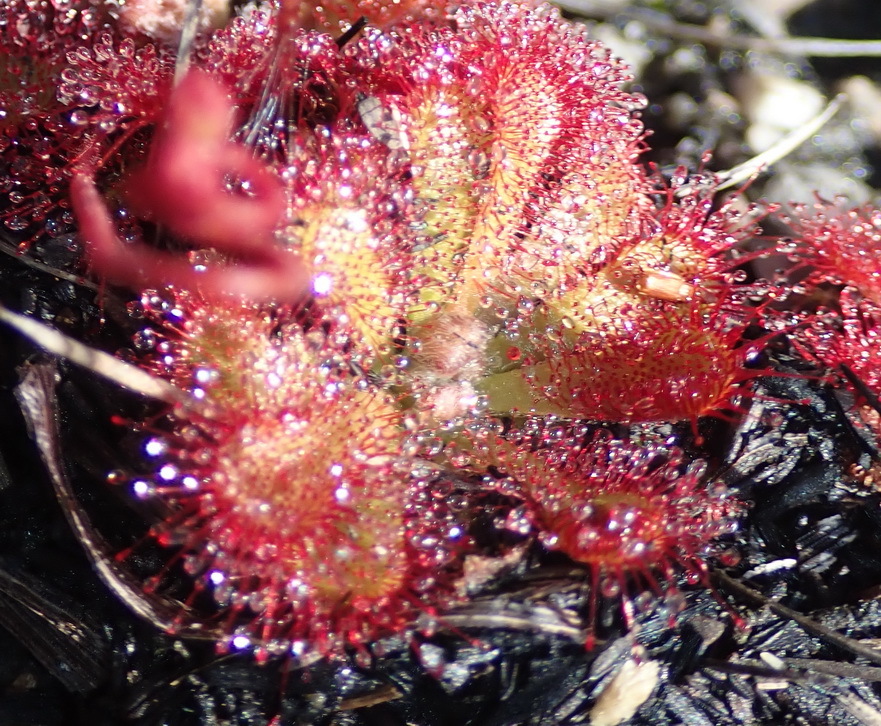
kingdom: Plantae
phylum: Tracheophyta
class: Magnoliopsida
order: Caryophyllales
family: Droseraceae
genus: Drosera
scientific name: Drosera aliciae
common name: Alice sundew
